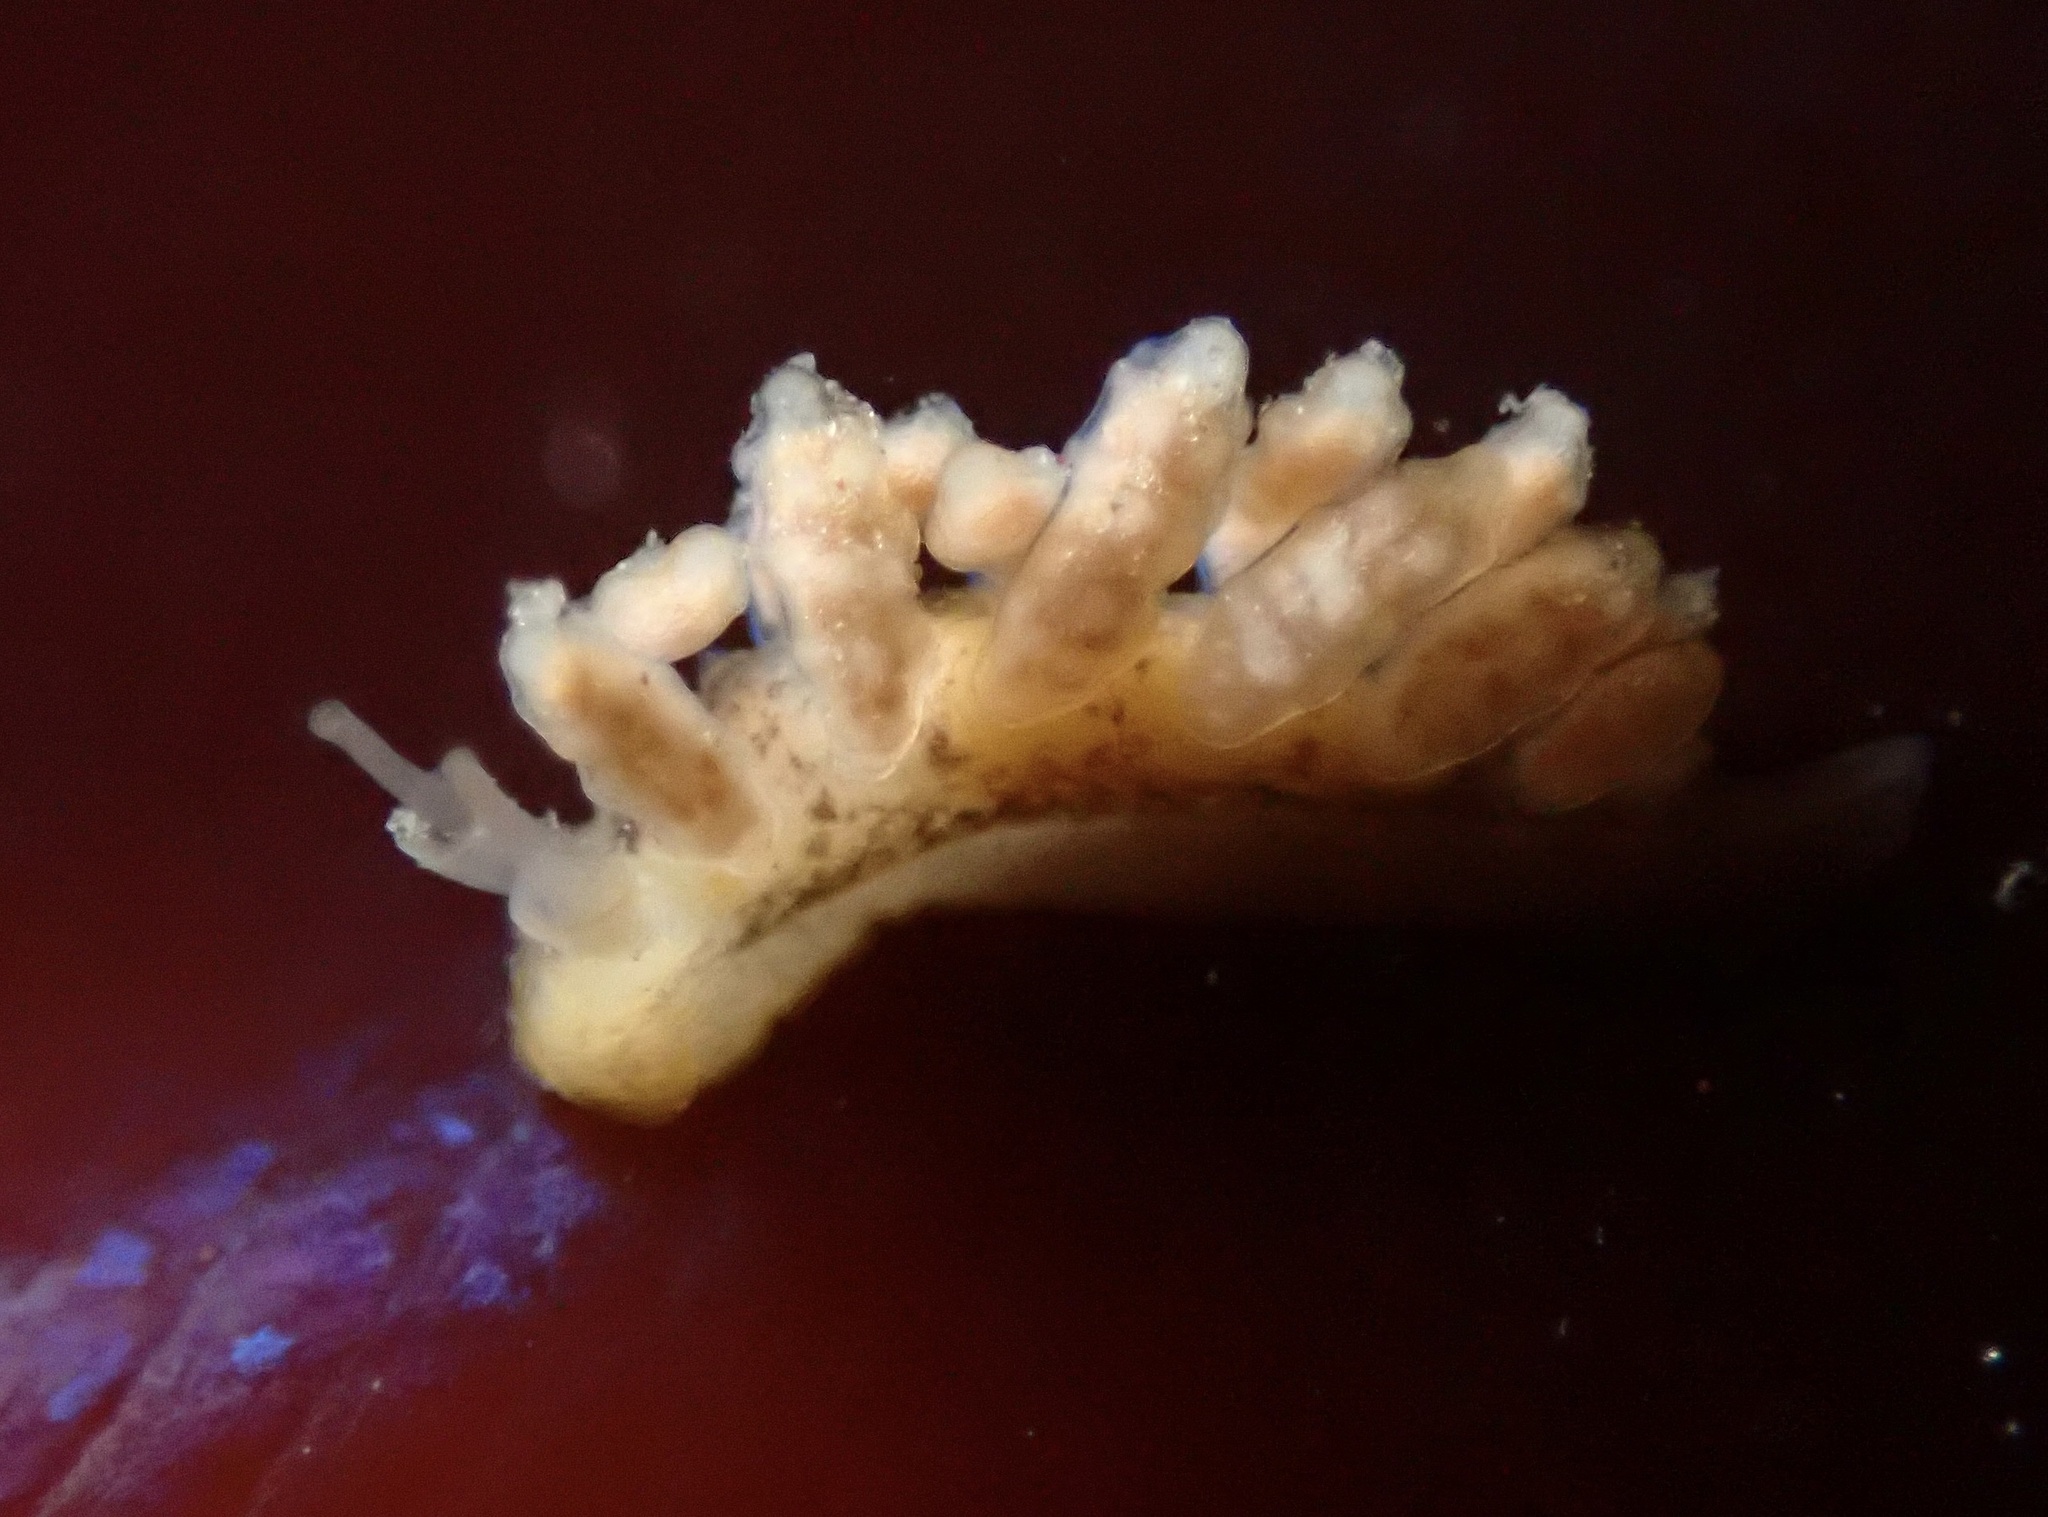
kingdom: Animalia
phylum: Mollusca
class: Gastropoda
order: Nudibranchia
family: Dotidae
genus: Doto
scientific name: Doto columbiana
